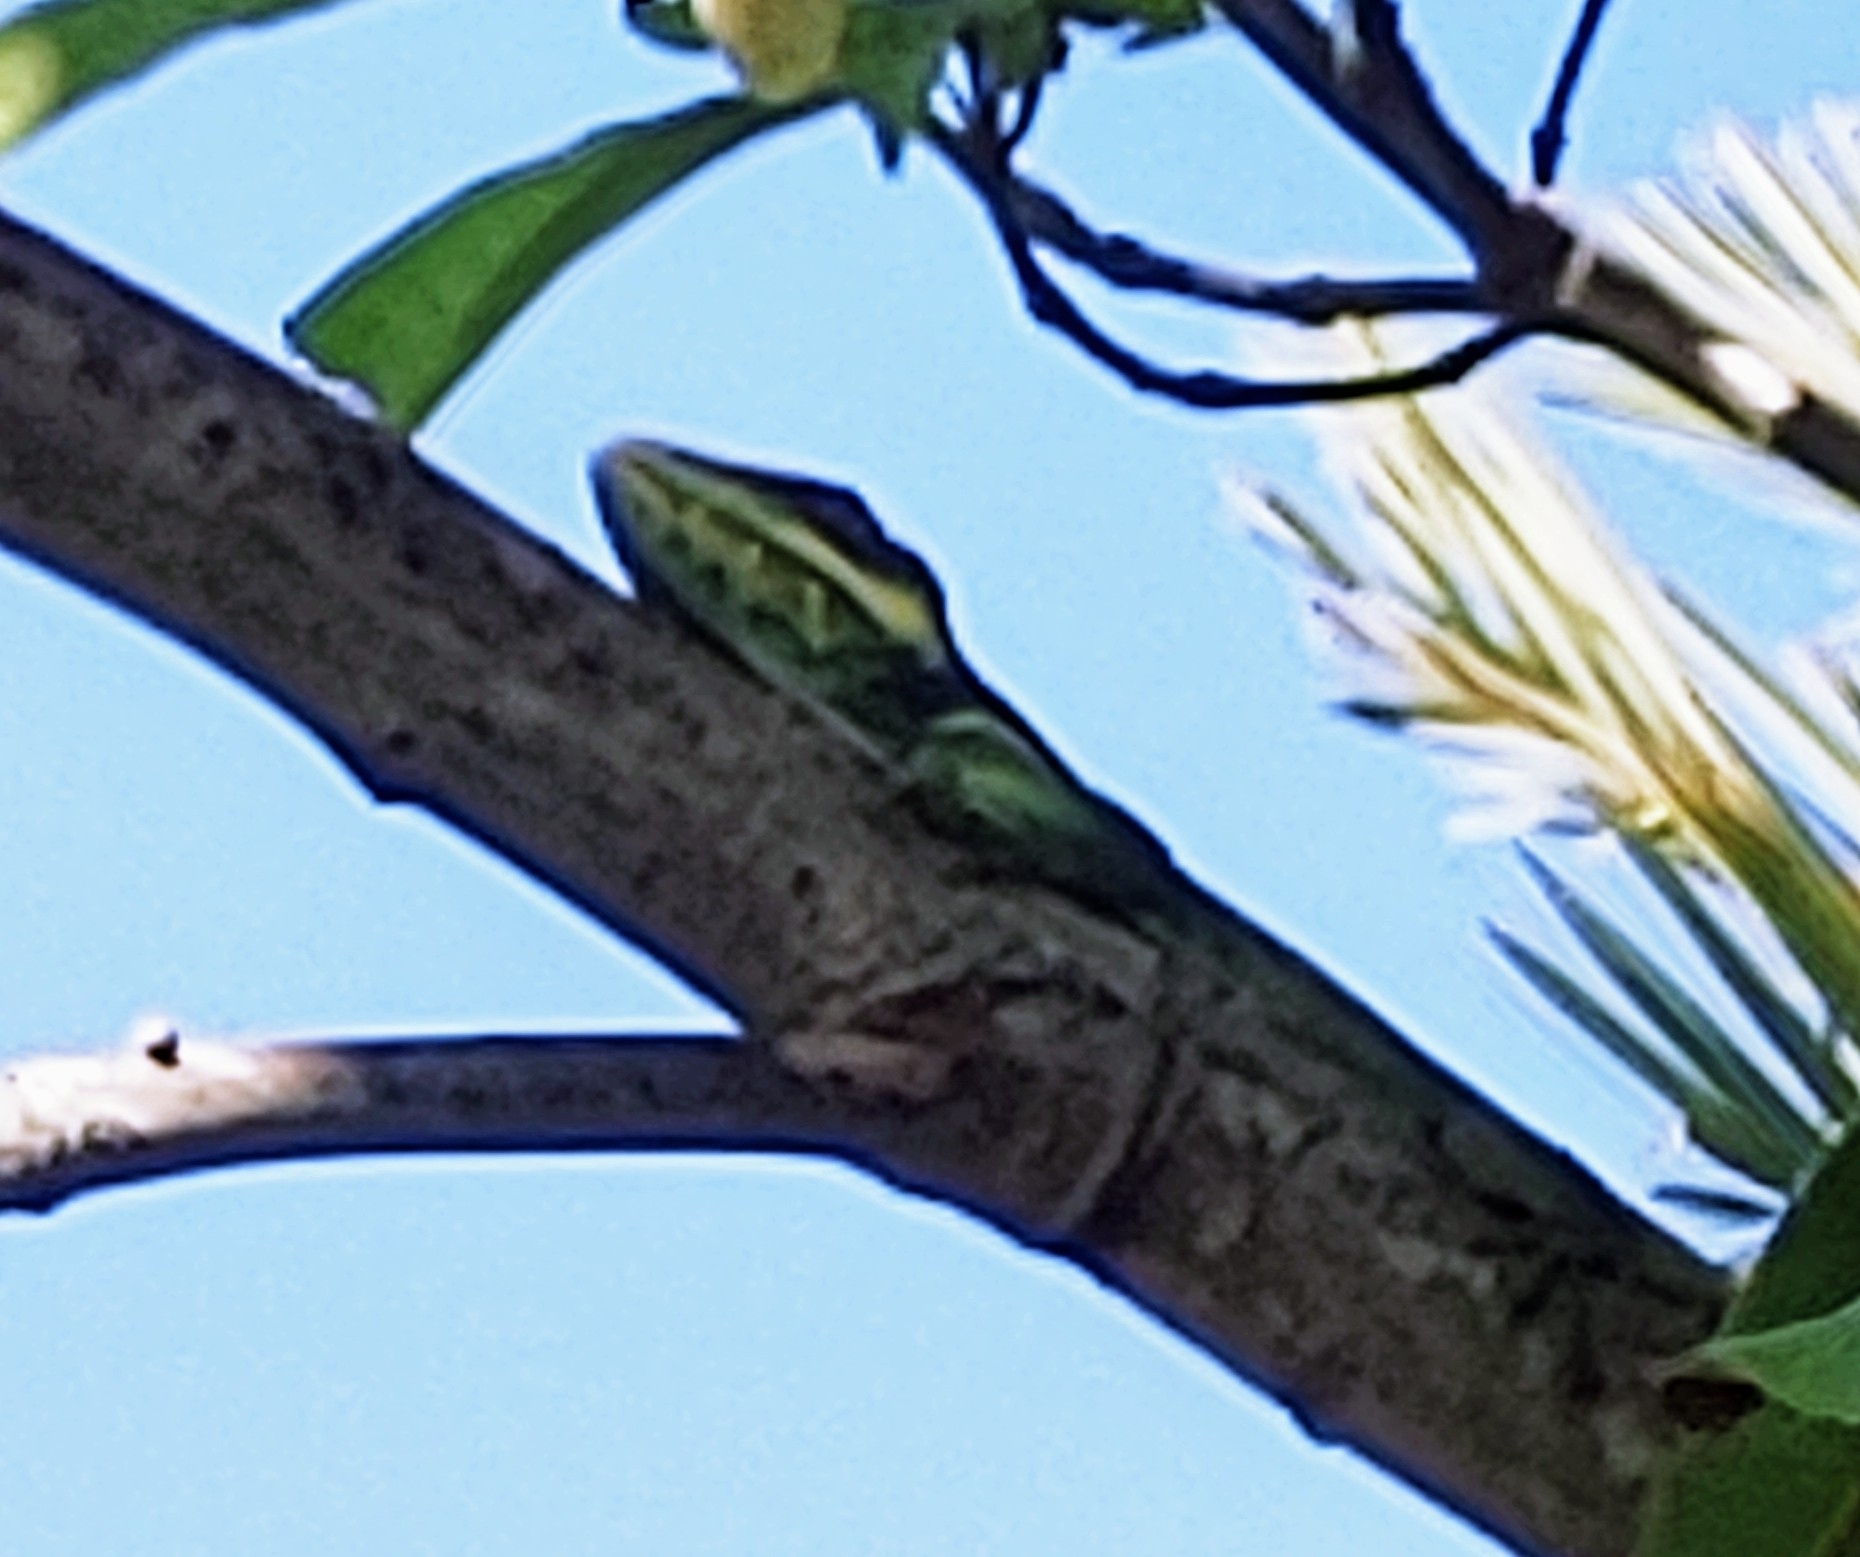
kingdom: Animalia
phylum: Chordata
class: Squamata
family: Dactyloidae
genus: Anolis
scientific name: Anolis equestris
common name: Knight anole
